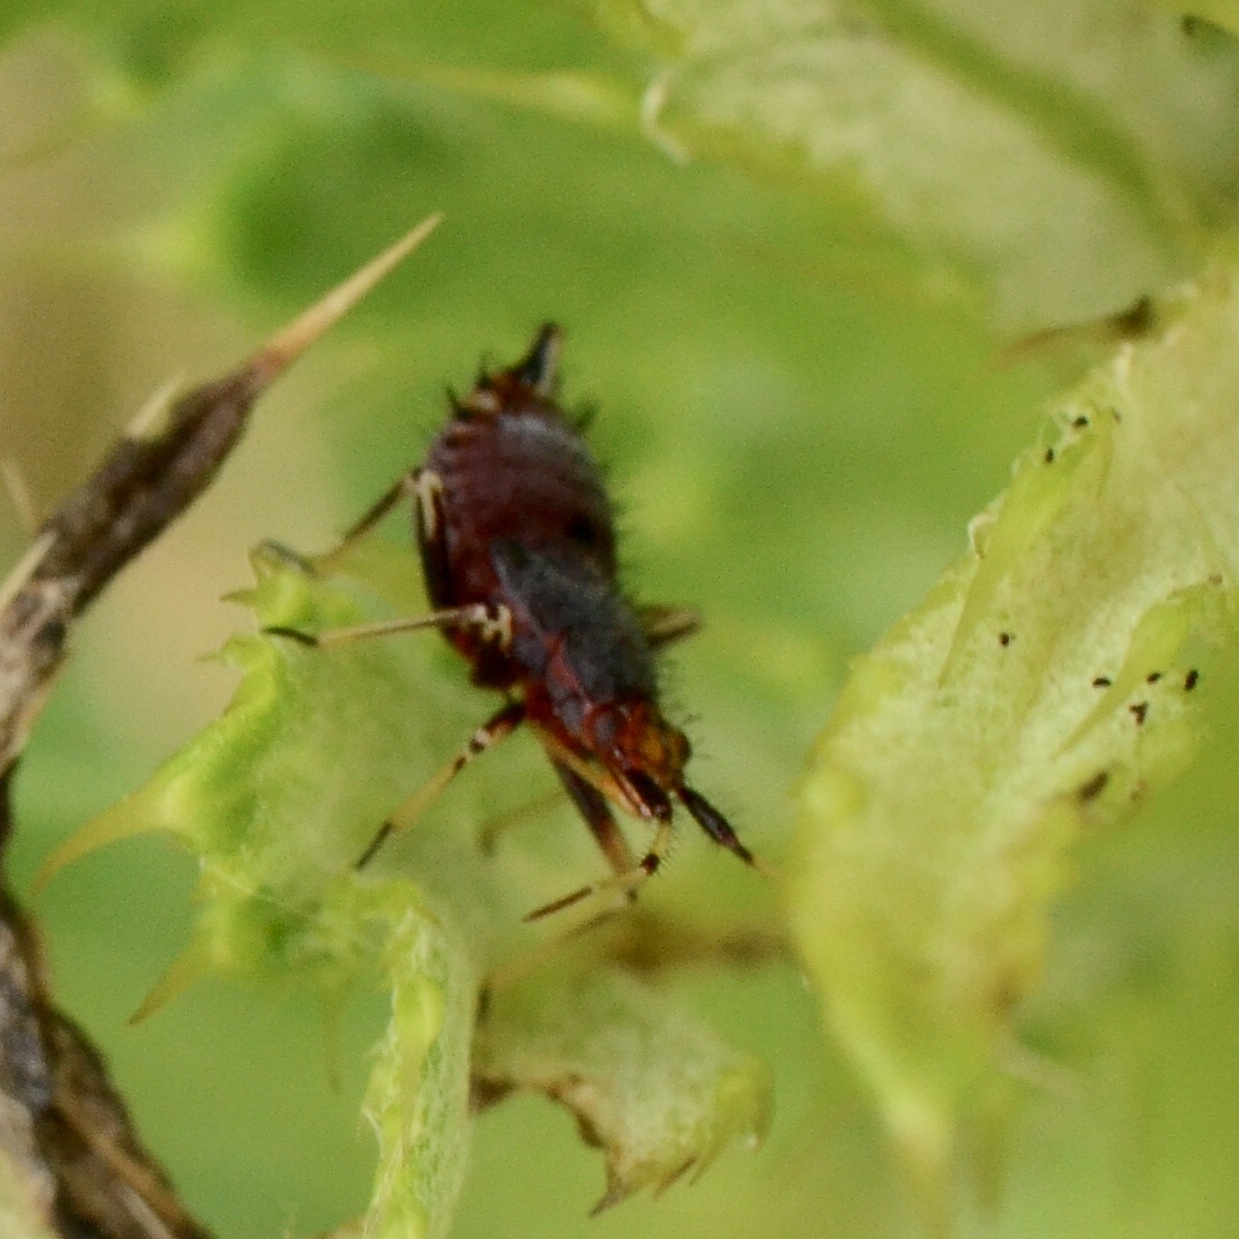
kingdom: Animalia
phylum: Arthropoda
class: Insecta
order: Hemiptera
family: Miridae
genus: Deraeocoris
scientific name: Deraeocoris ruber
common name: Plant bug
